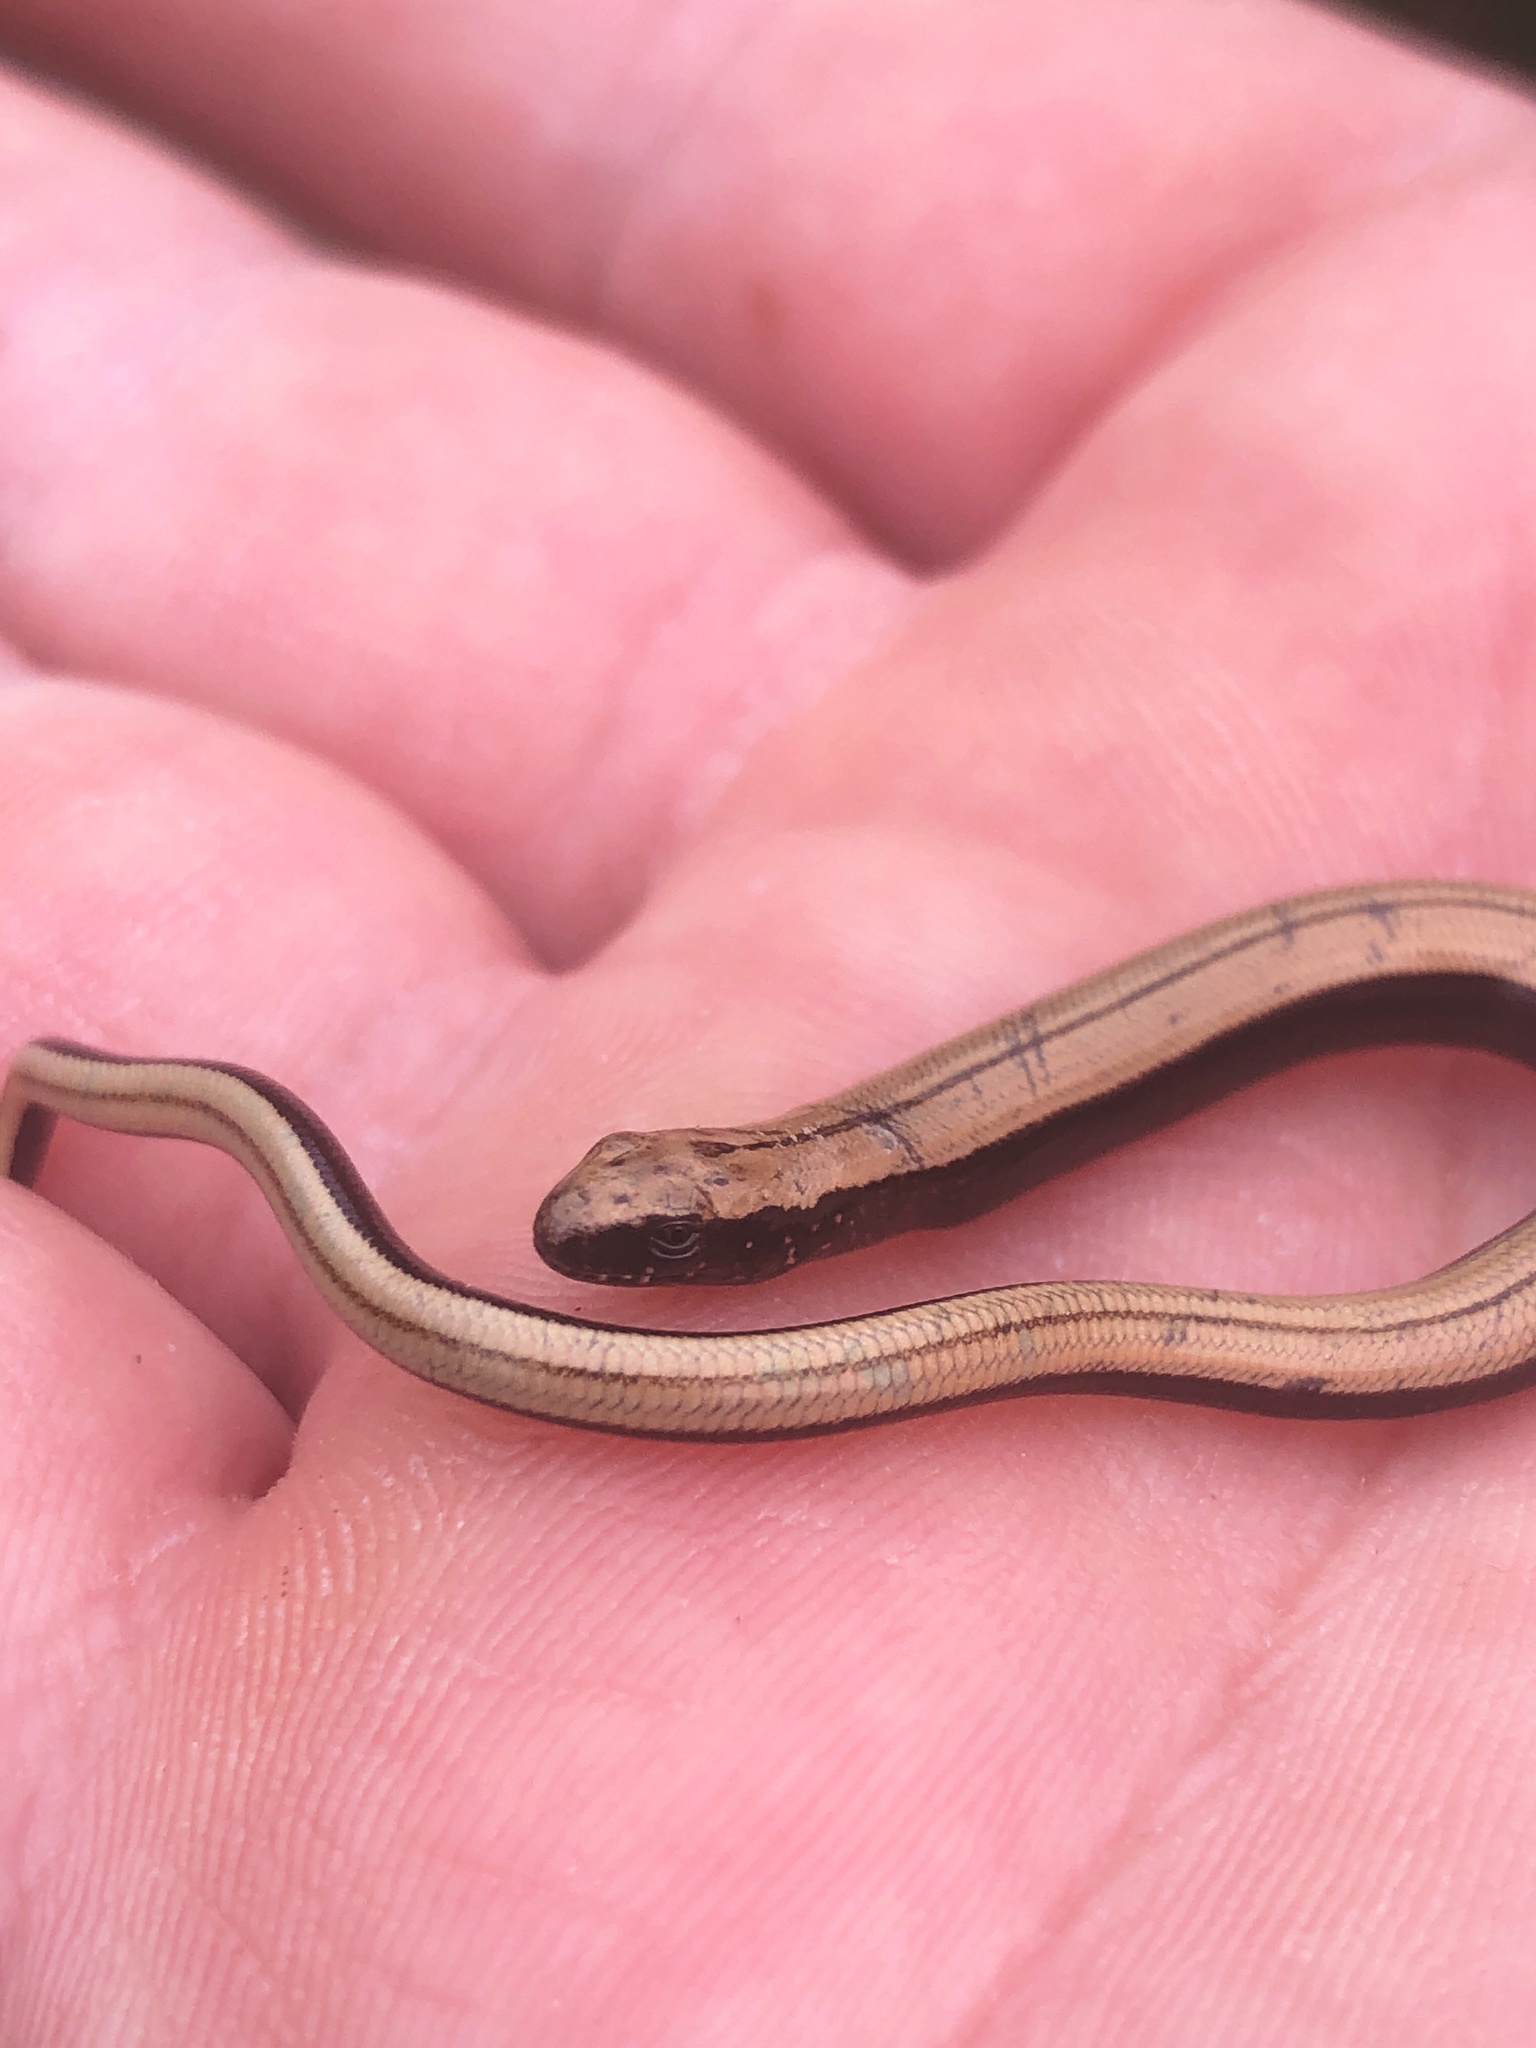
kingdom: Animalia
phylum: Chordata
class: Squamata
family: Anguidae
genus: Anguis
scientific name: Anguis fragilis
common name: Slow worm
